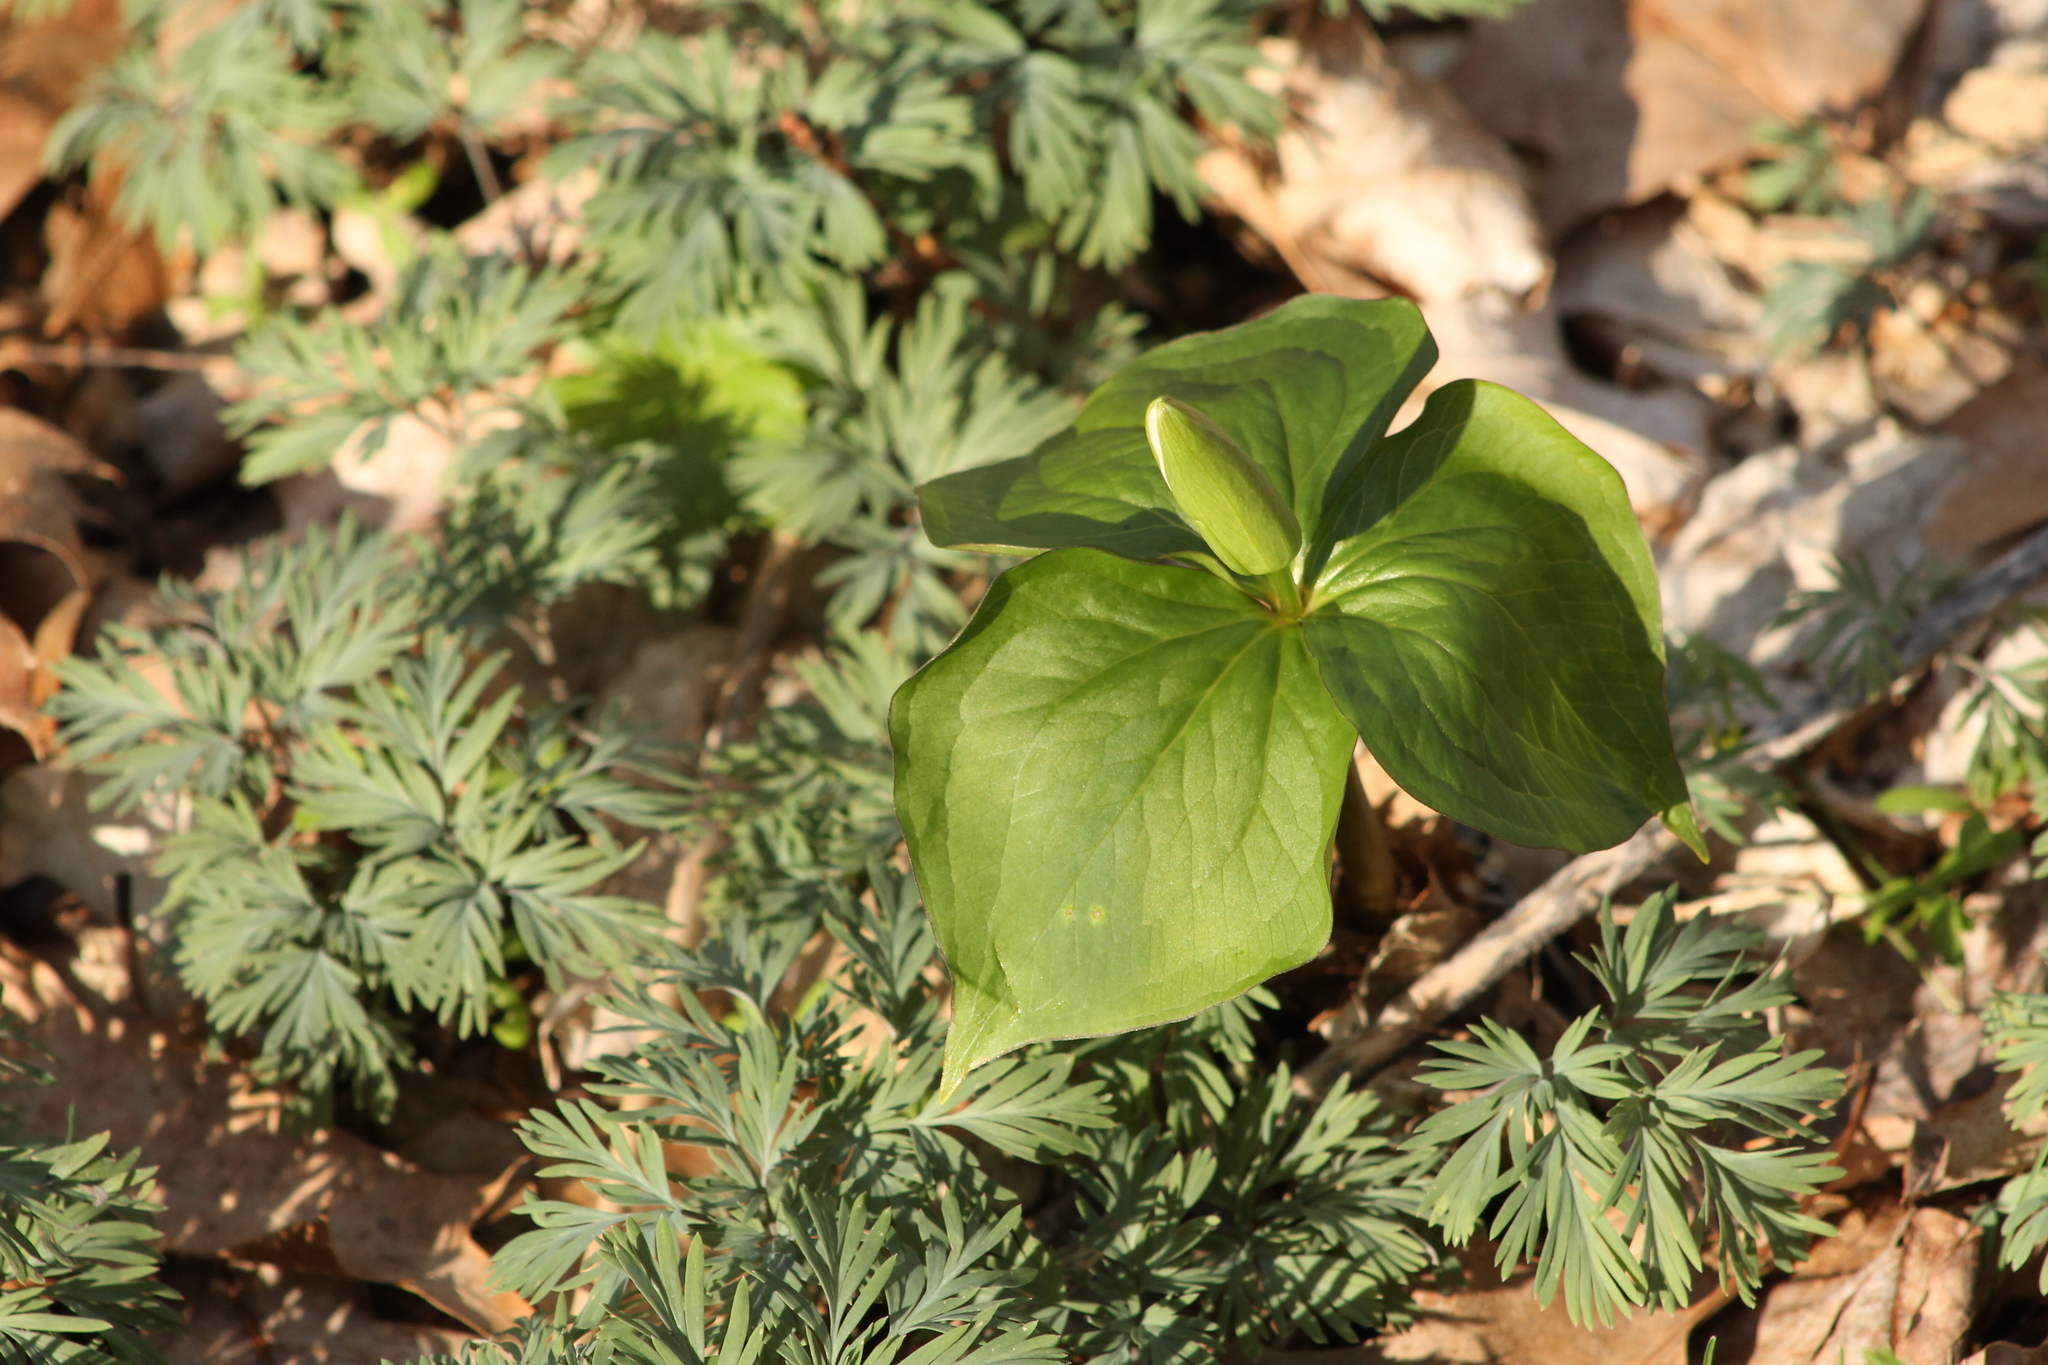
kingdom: Plantae
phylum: Tracheophyta
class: Liliopsida
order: Liliales
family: Melanthiaceae
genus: Trillium
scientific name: Trillium grandiflorum
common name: Great white trillium
